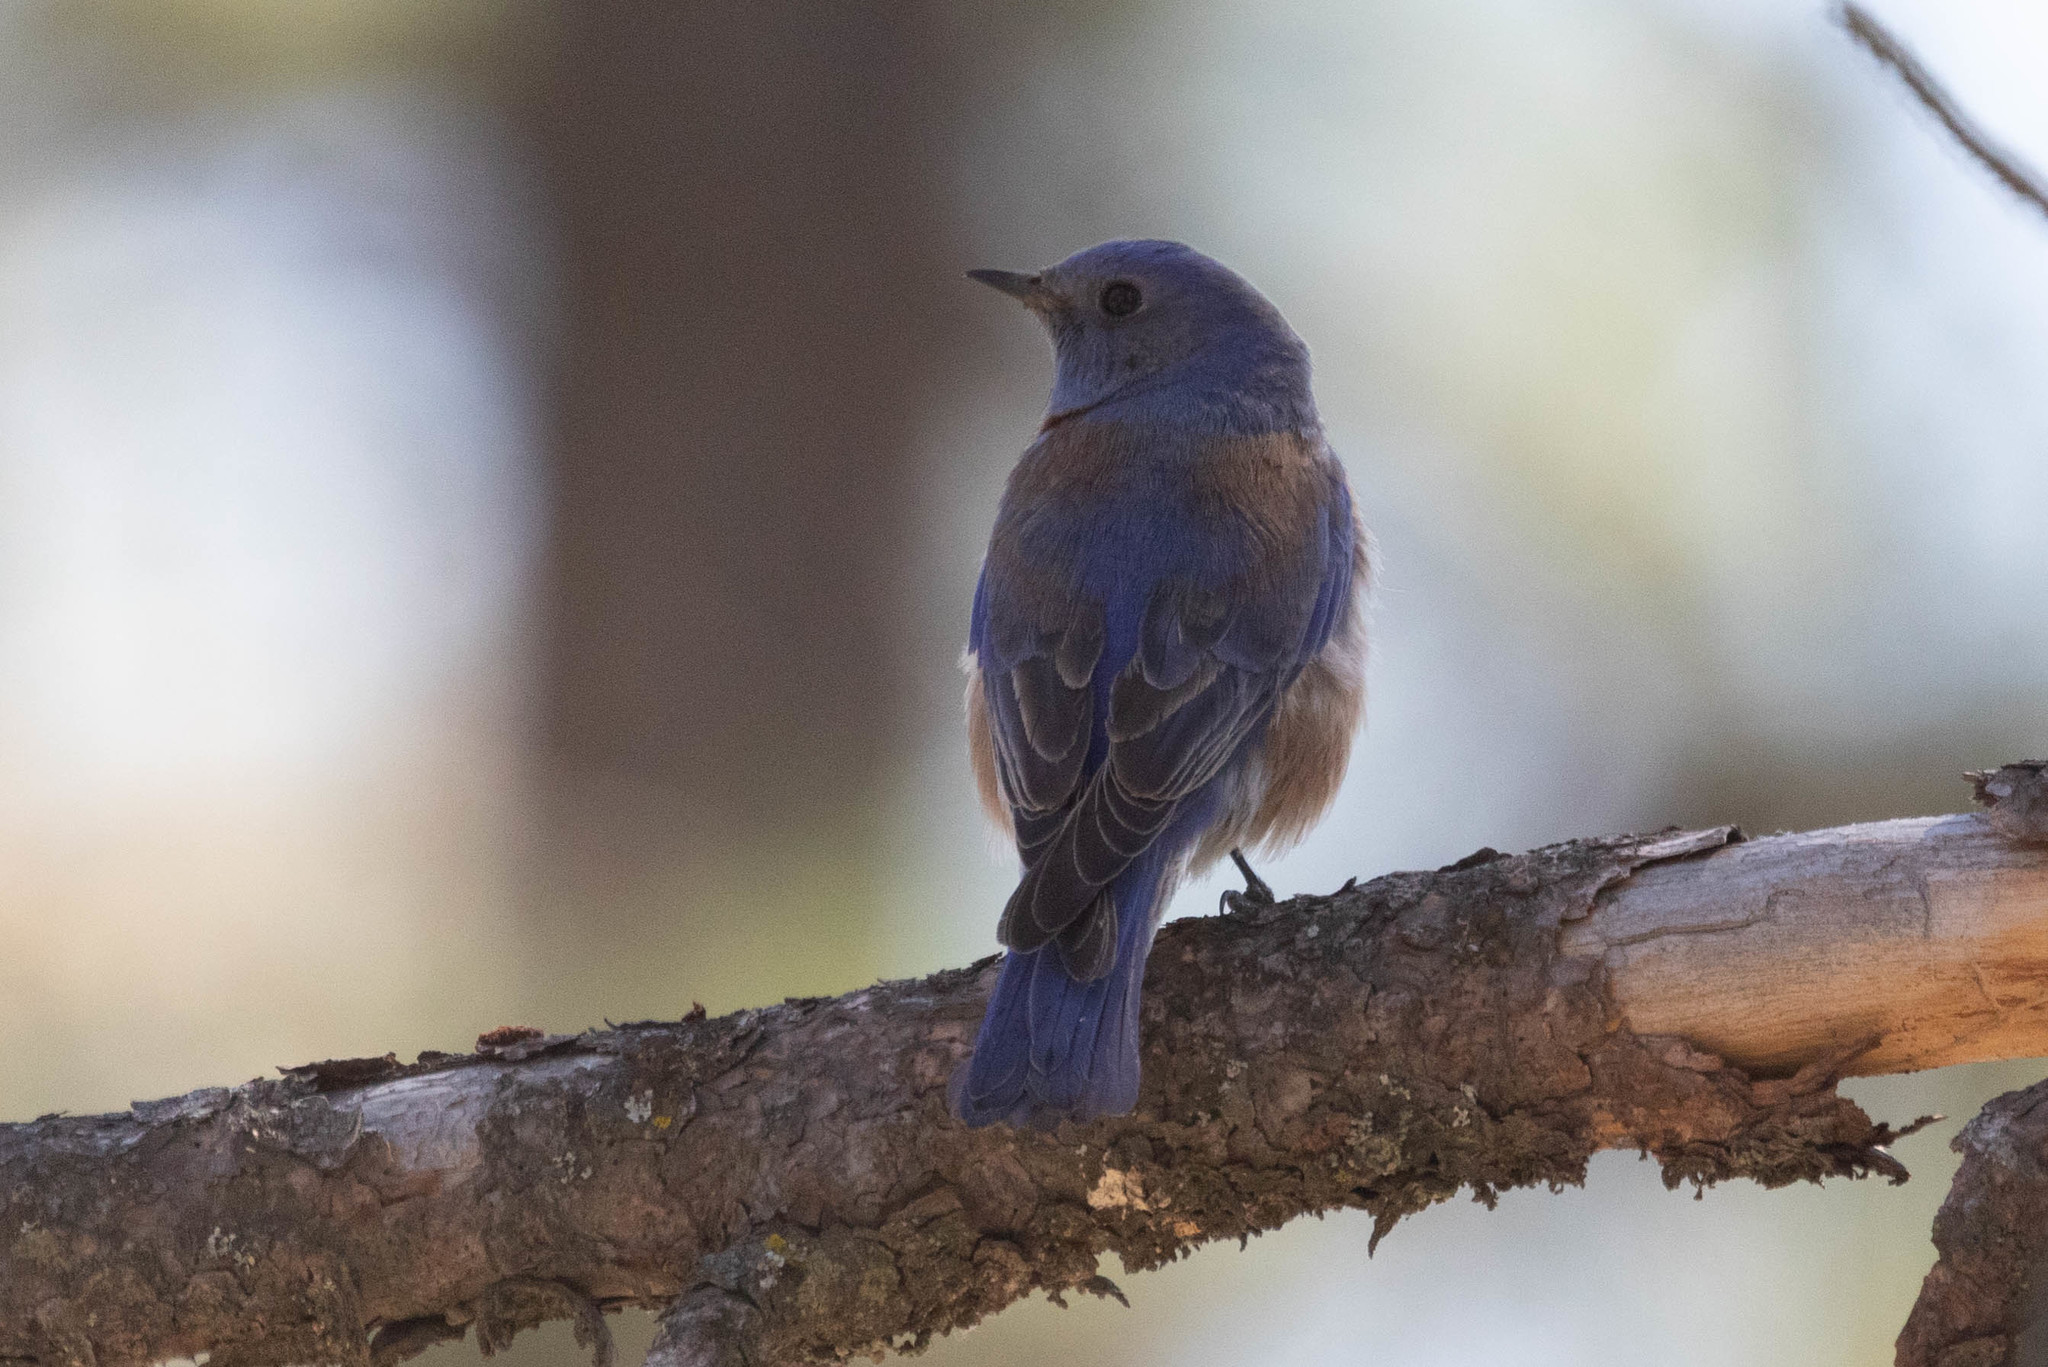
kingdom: Animalia
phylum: Chordata
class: Aves
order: Passeriformes
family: Turdidae
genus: Sialia
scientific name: Sialia mexicana
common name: Western bluebird
